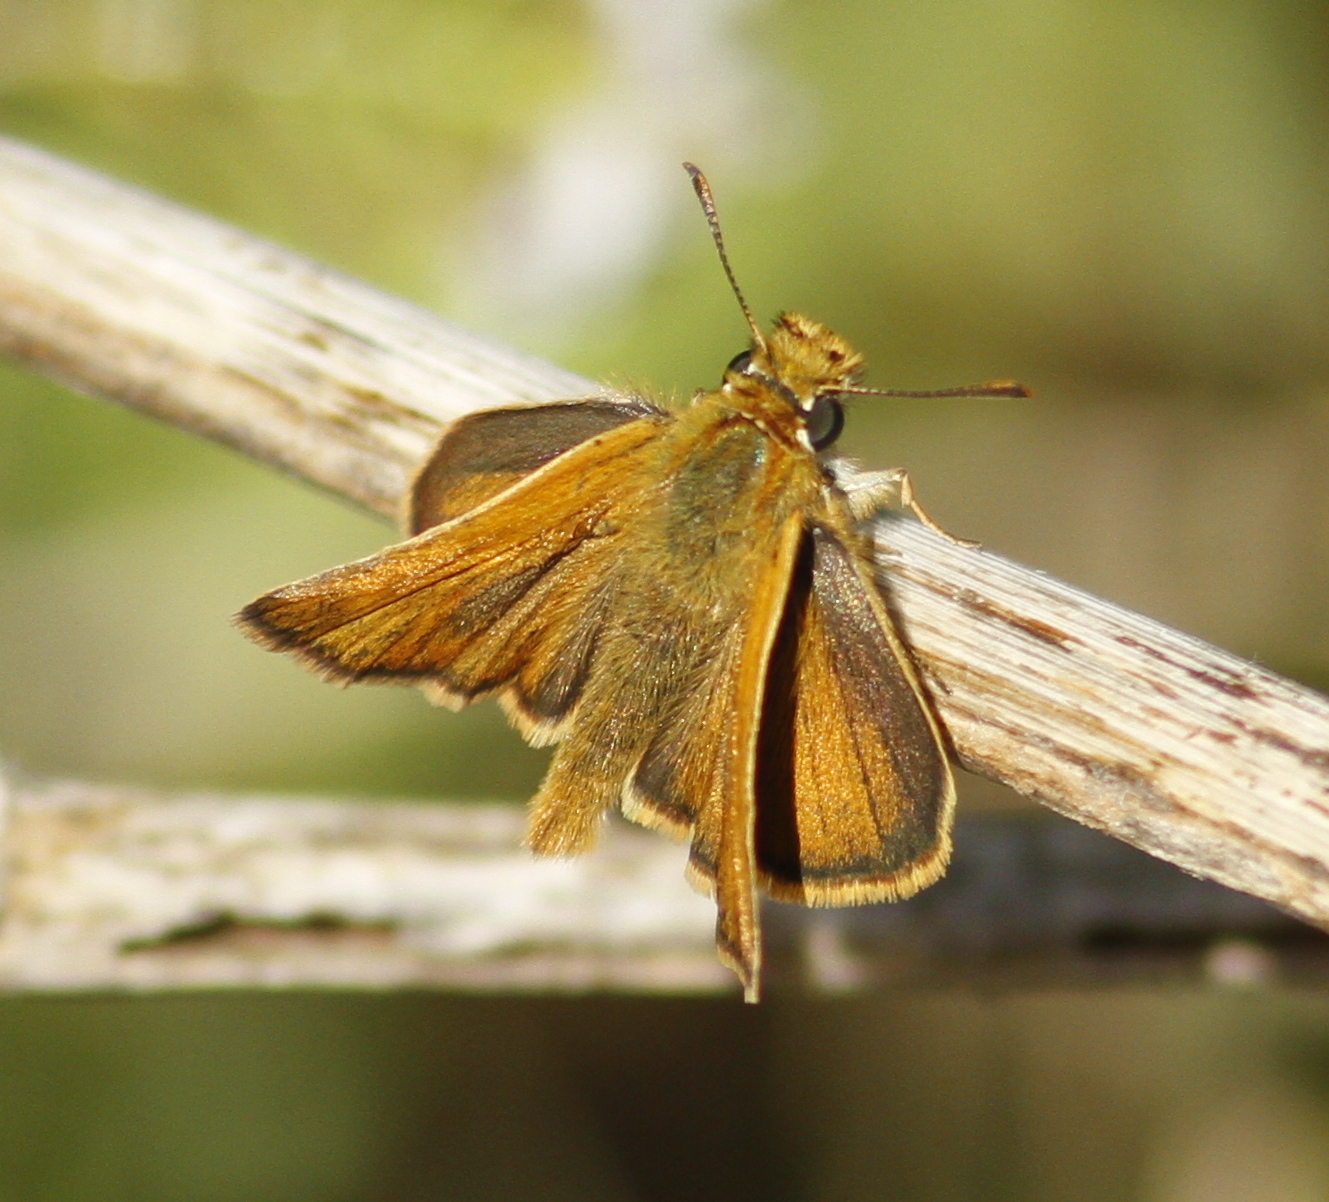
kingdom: Animalia
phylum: Arthropoda
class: Insecta
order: Lepidoptera
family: Hesperiidae
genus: Thymelicus
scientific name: Thymelicus acteon
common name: Lulworth skipper
